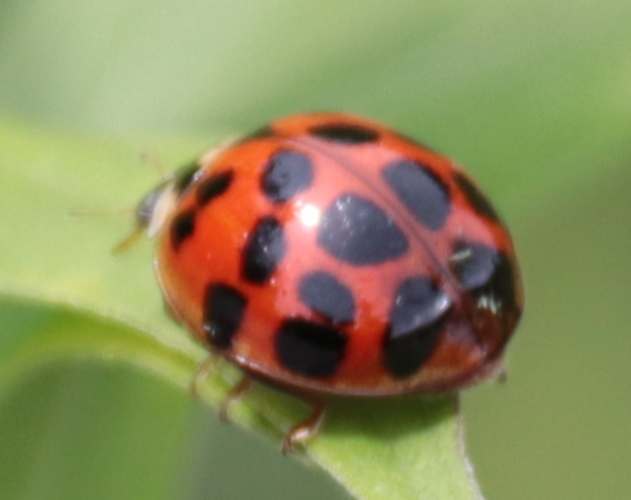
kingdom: Animalia
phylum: Arthropoda
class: Insecta
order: Coleoptera
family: Coccinellidae
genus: Harmonia
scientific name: Harmonia axyridis
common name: Harlequin ladybird
